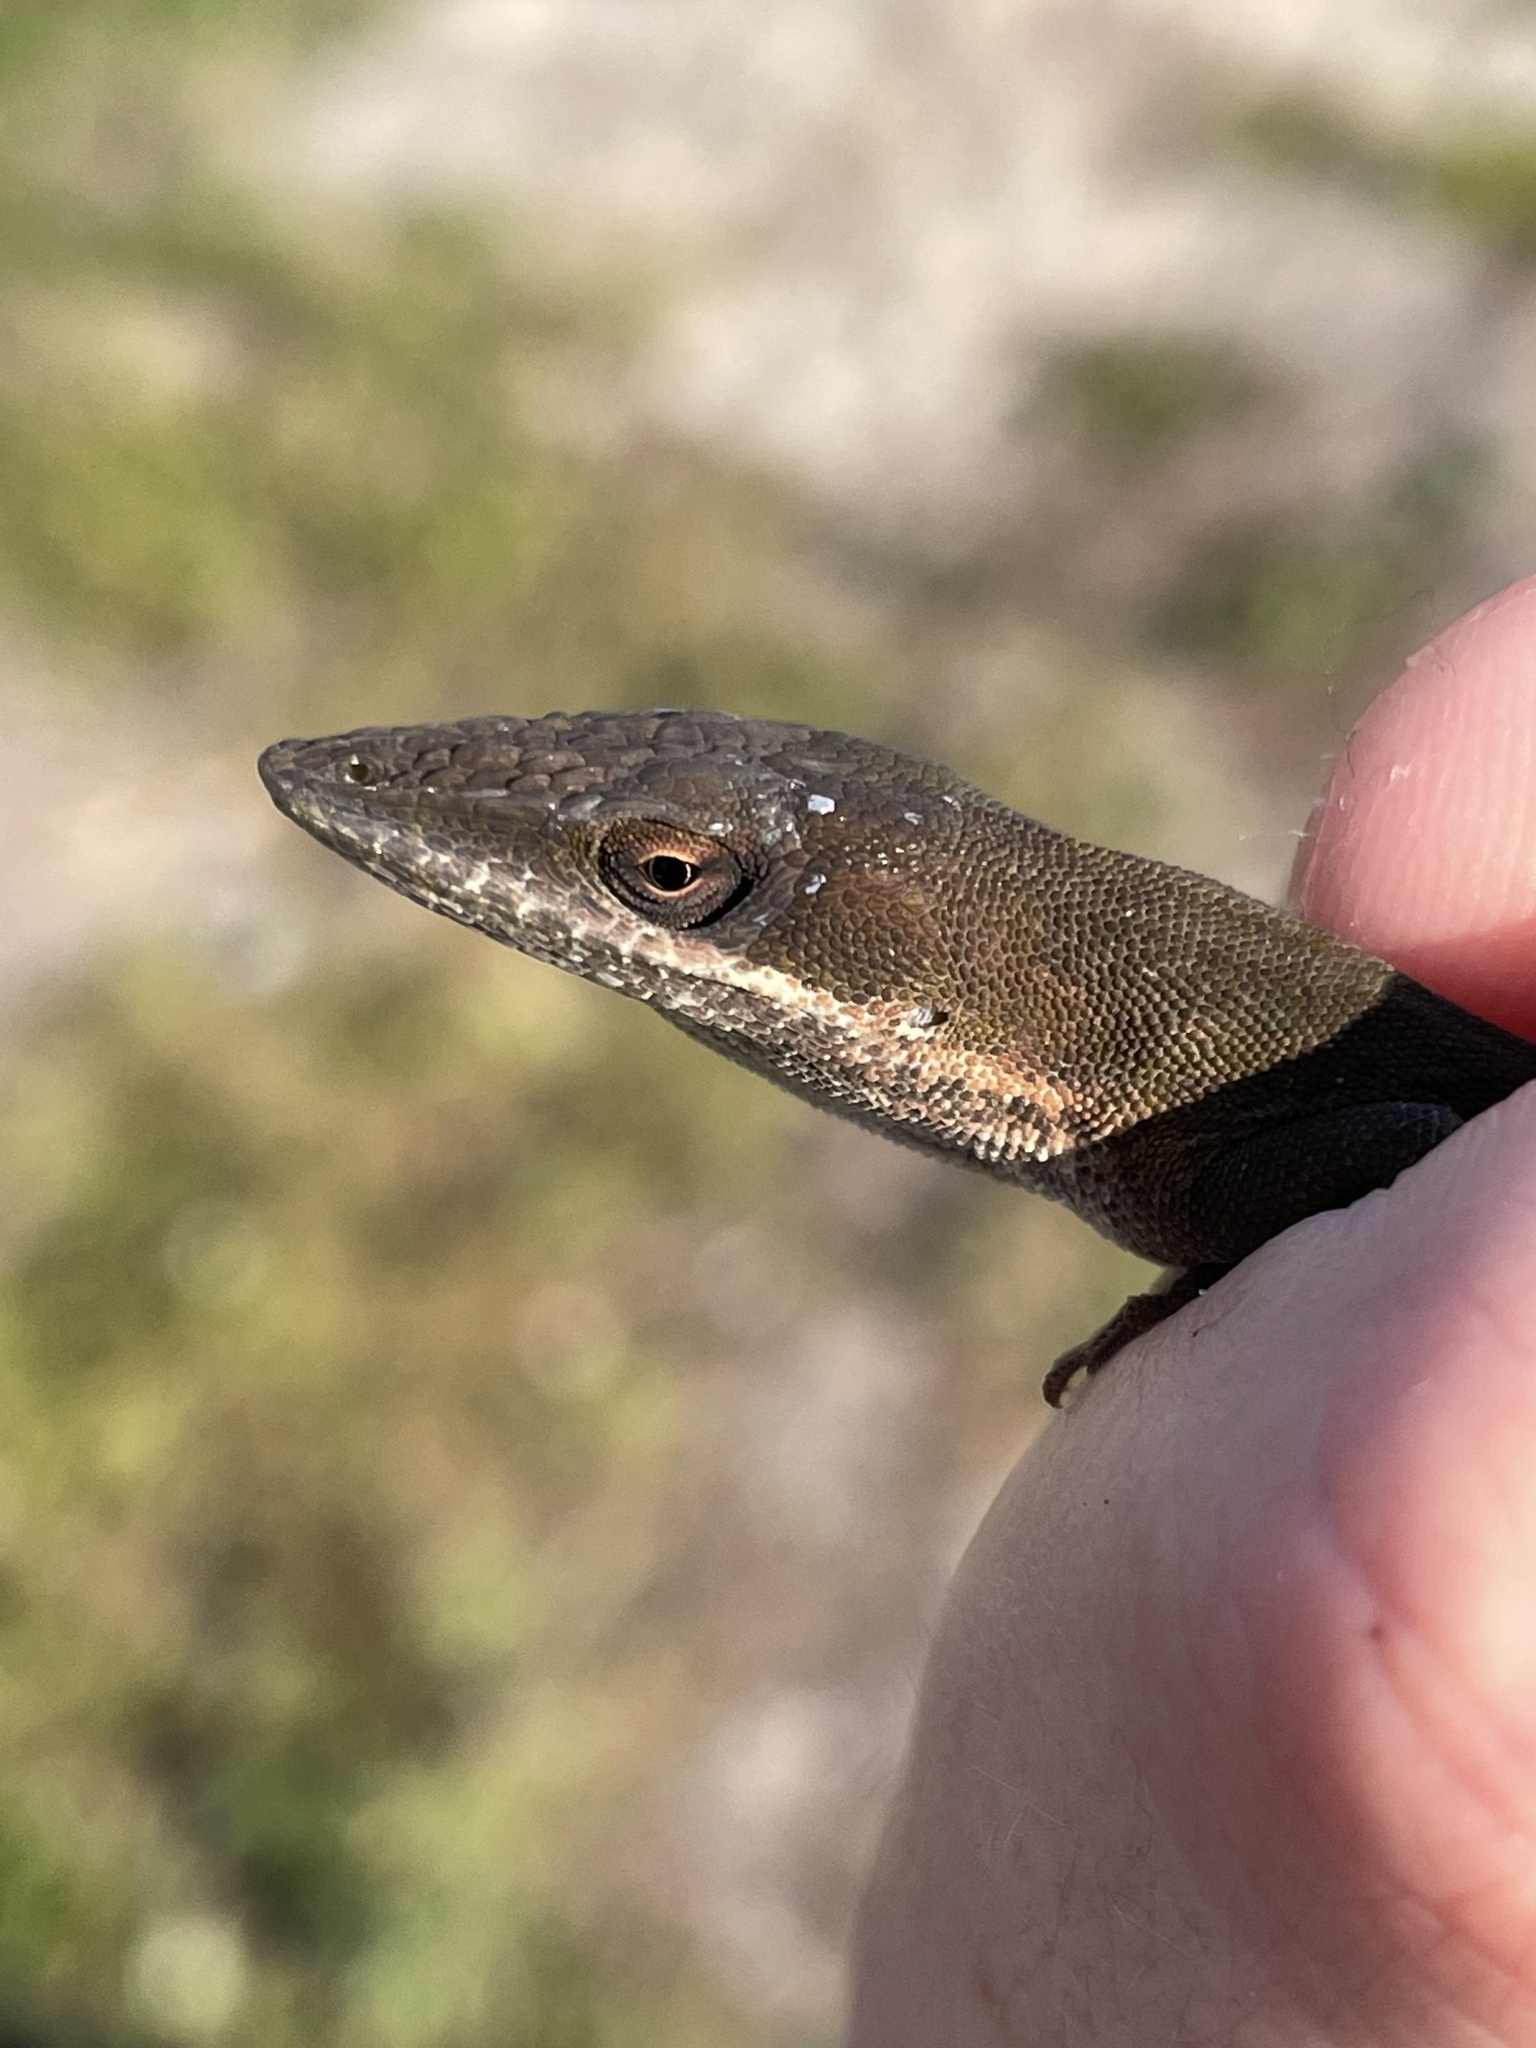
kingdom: Animalia
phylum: Chordata
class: Squamata
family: Dactyloidae
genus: Anolis
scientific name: Anolis carolinensis
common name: Green anole
